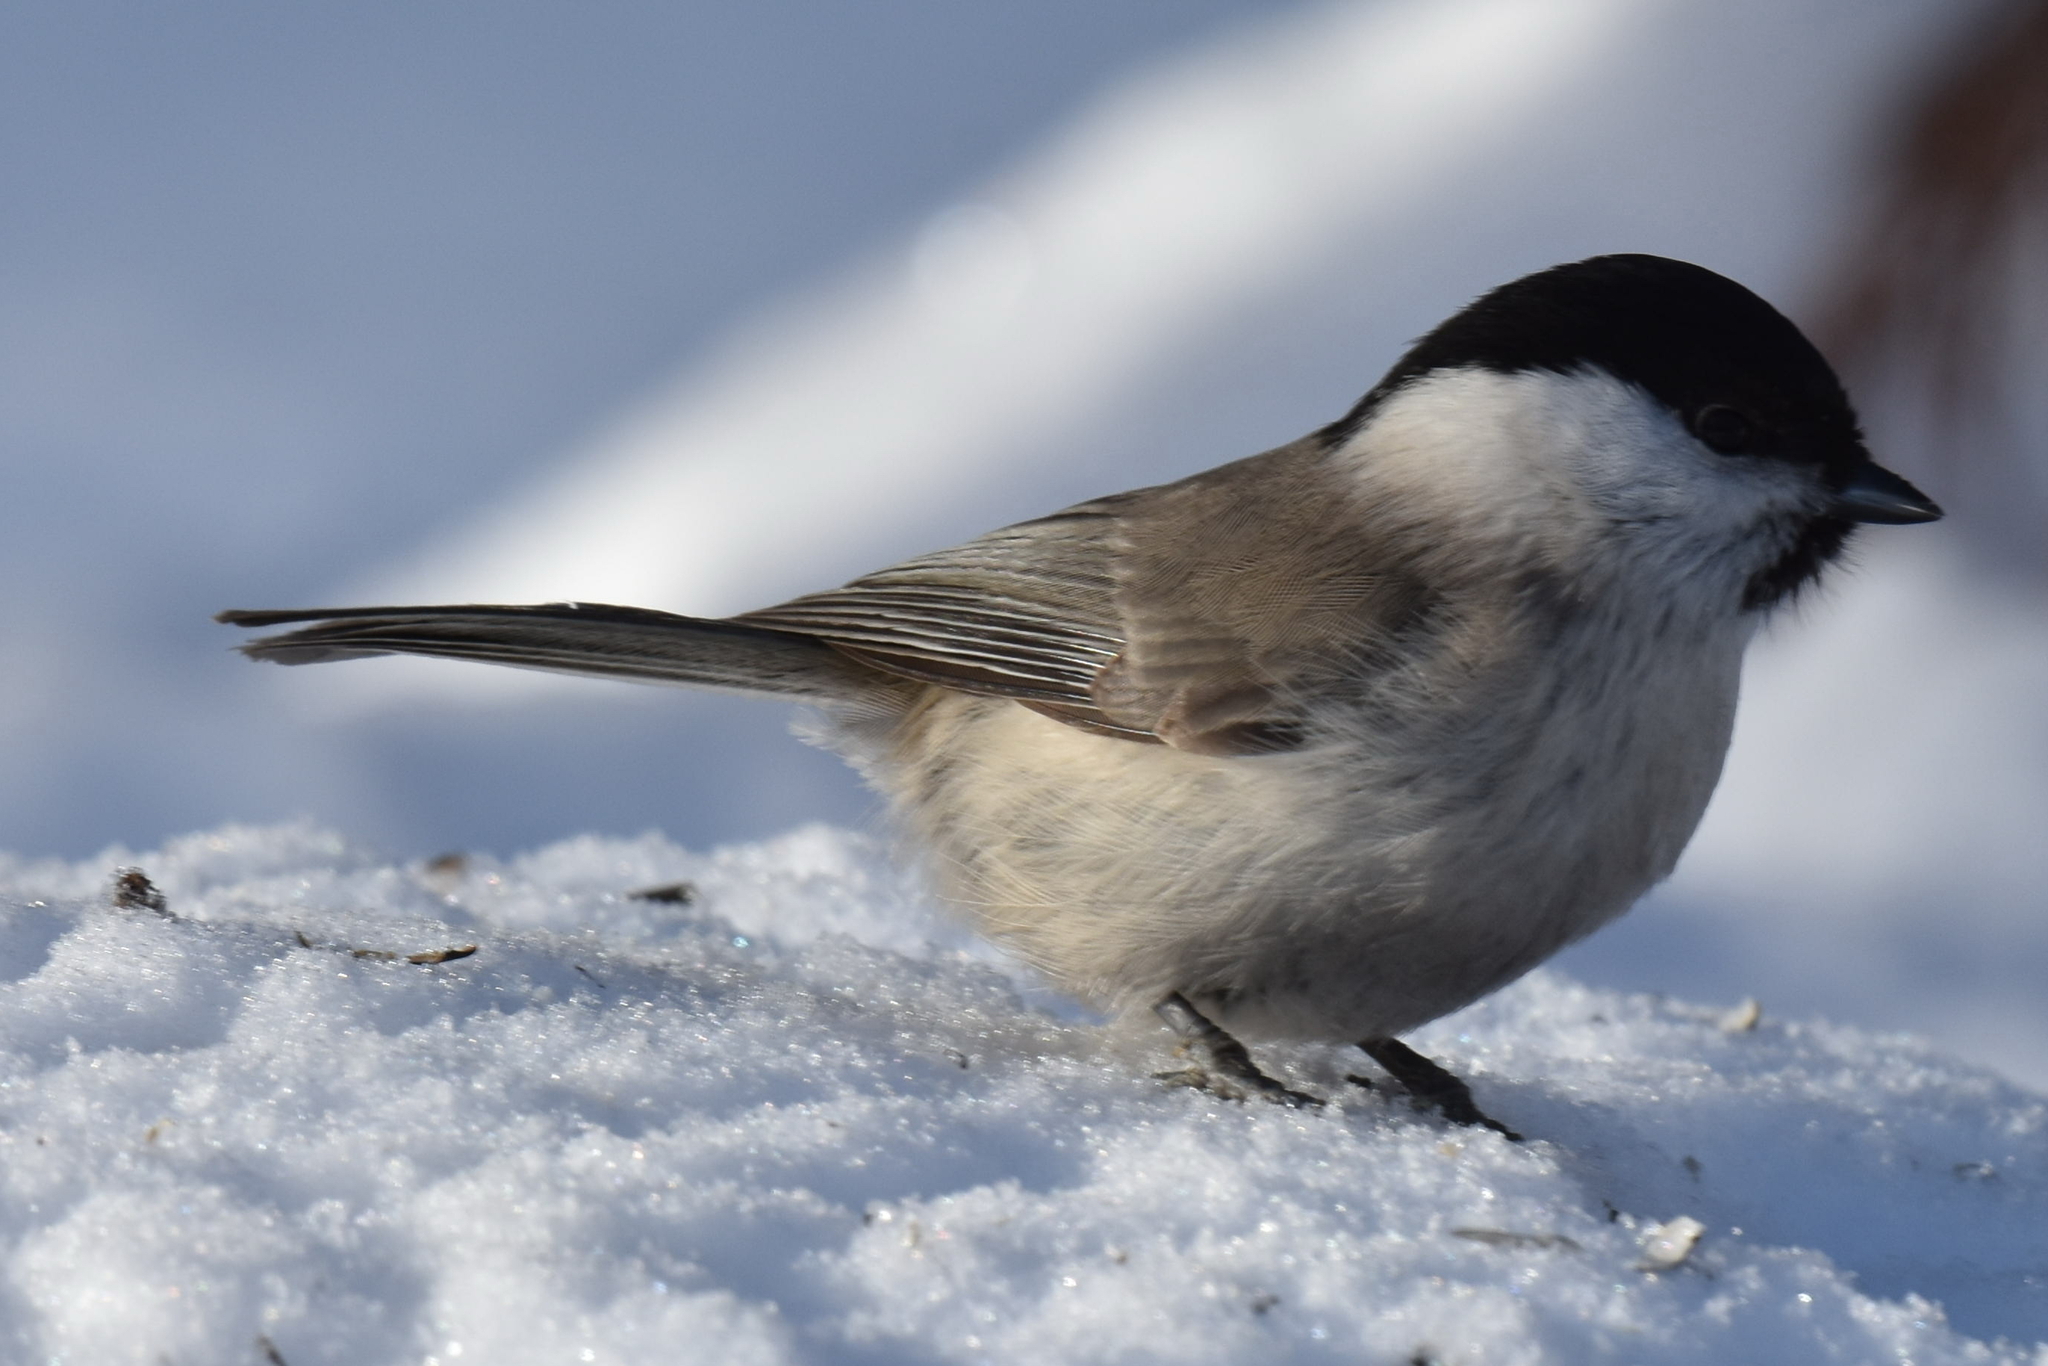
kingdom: Animalia
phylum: Chordata
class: Aves
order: Passeriformes
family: Paridae
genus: Poecile
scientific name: Poecile palustris
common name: Marsh tit
